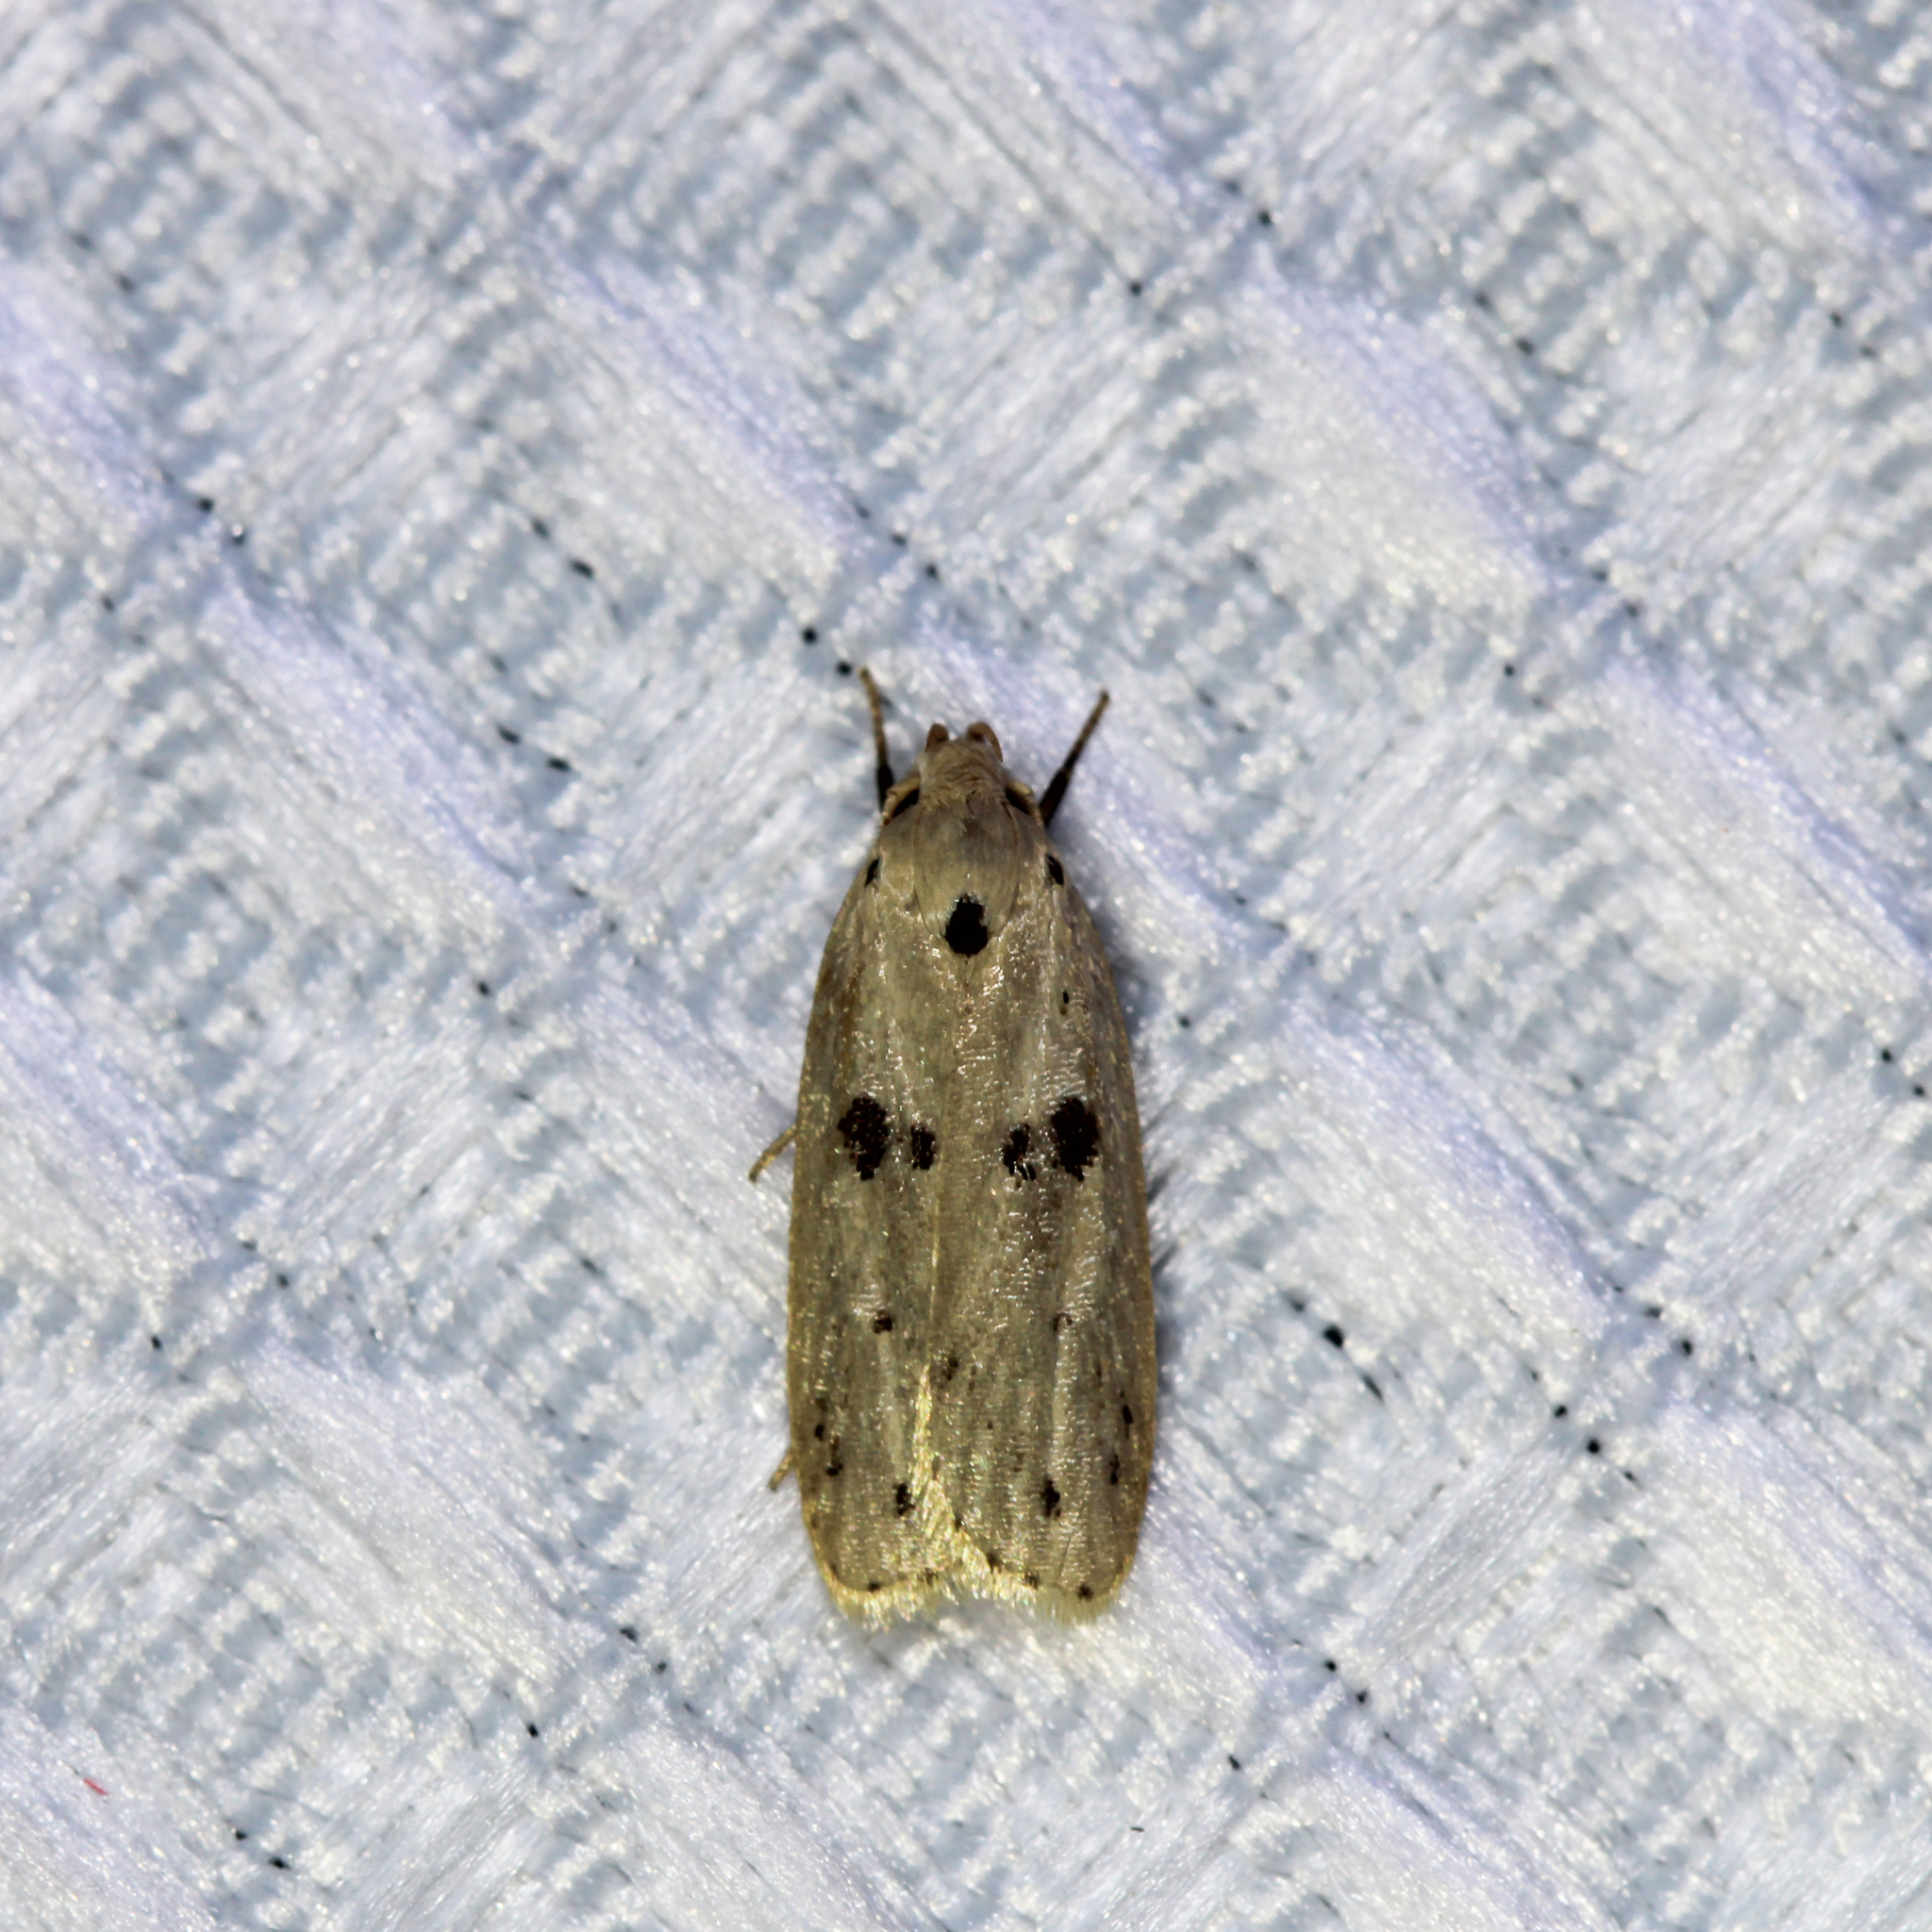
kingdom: Animalia
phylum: Arthropoda
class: Insecta
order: Lepidoptera
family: Peleopodidae
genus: Scythropiodes
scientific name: Scythropiodes issikii
